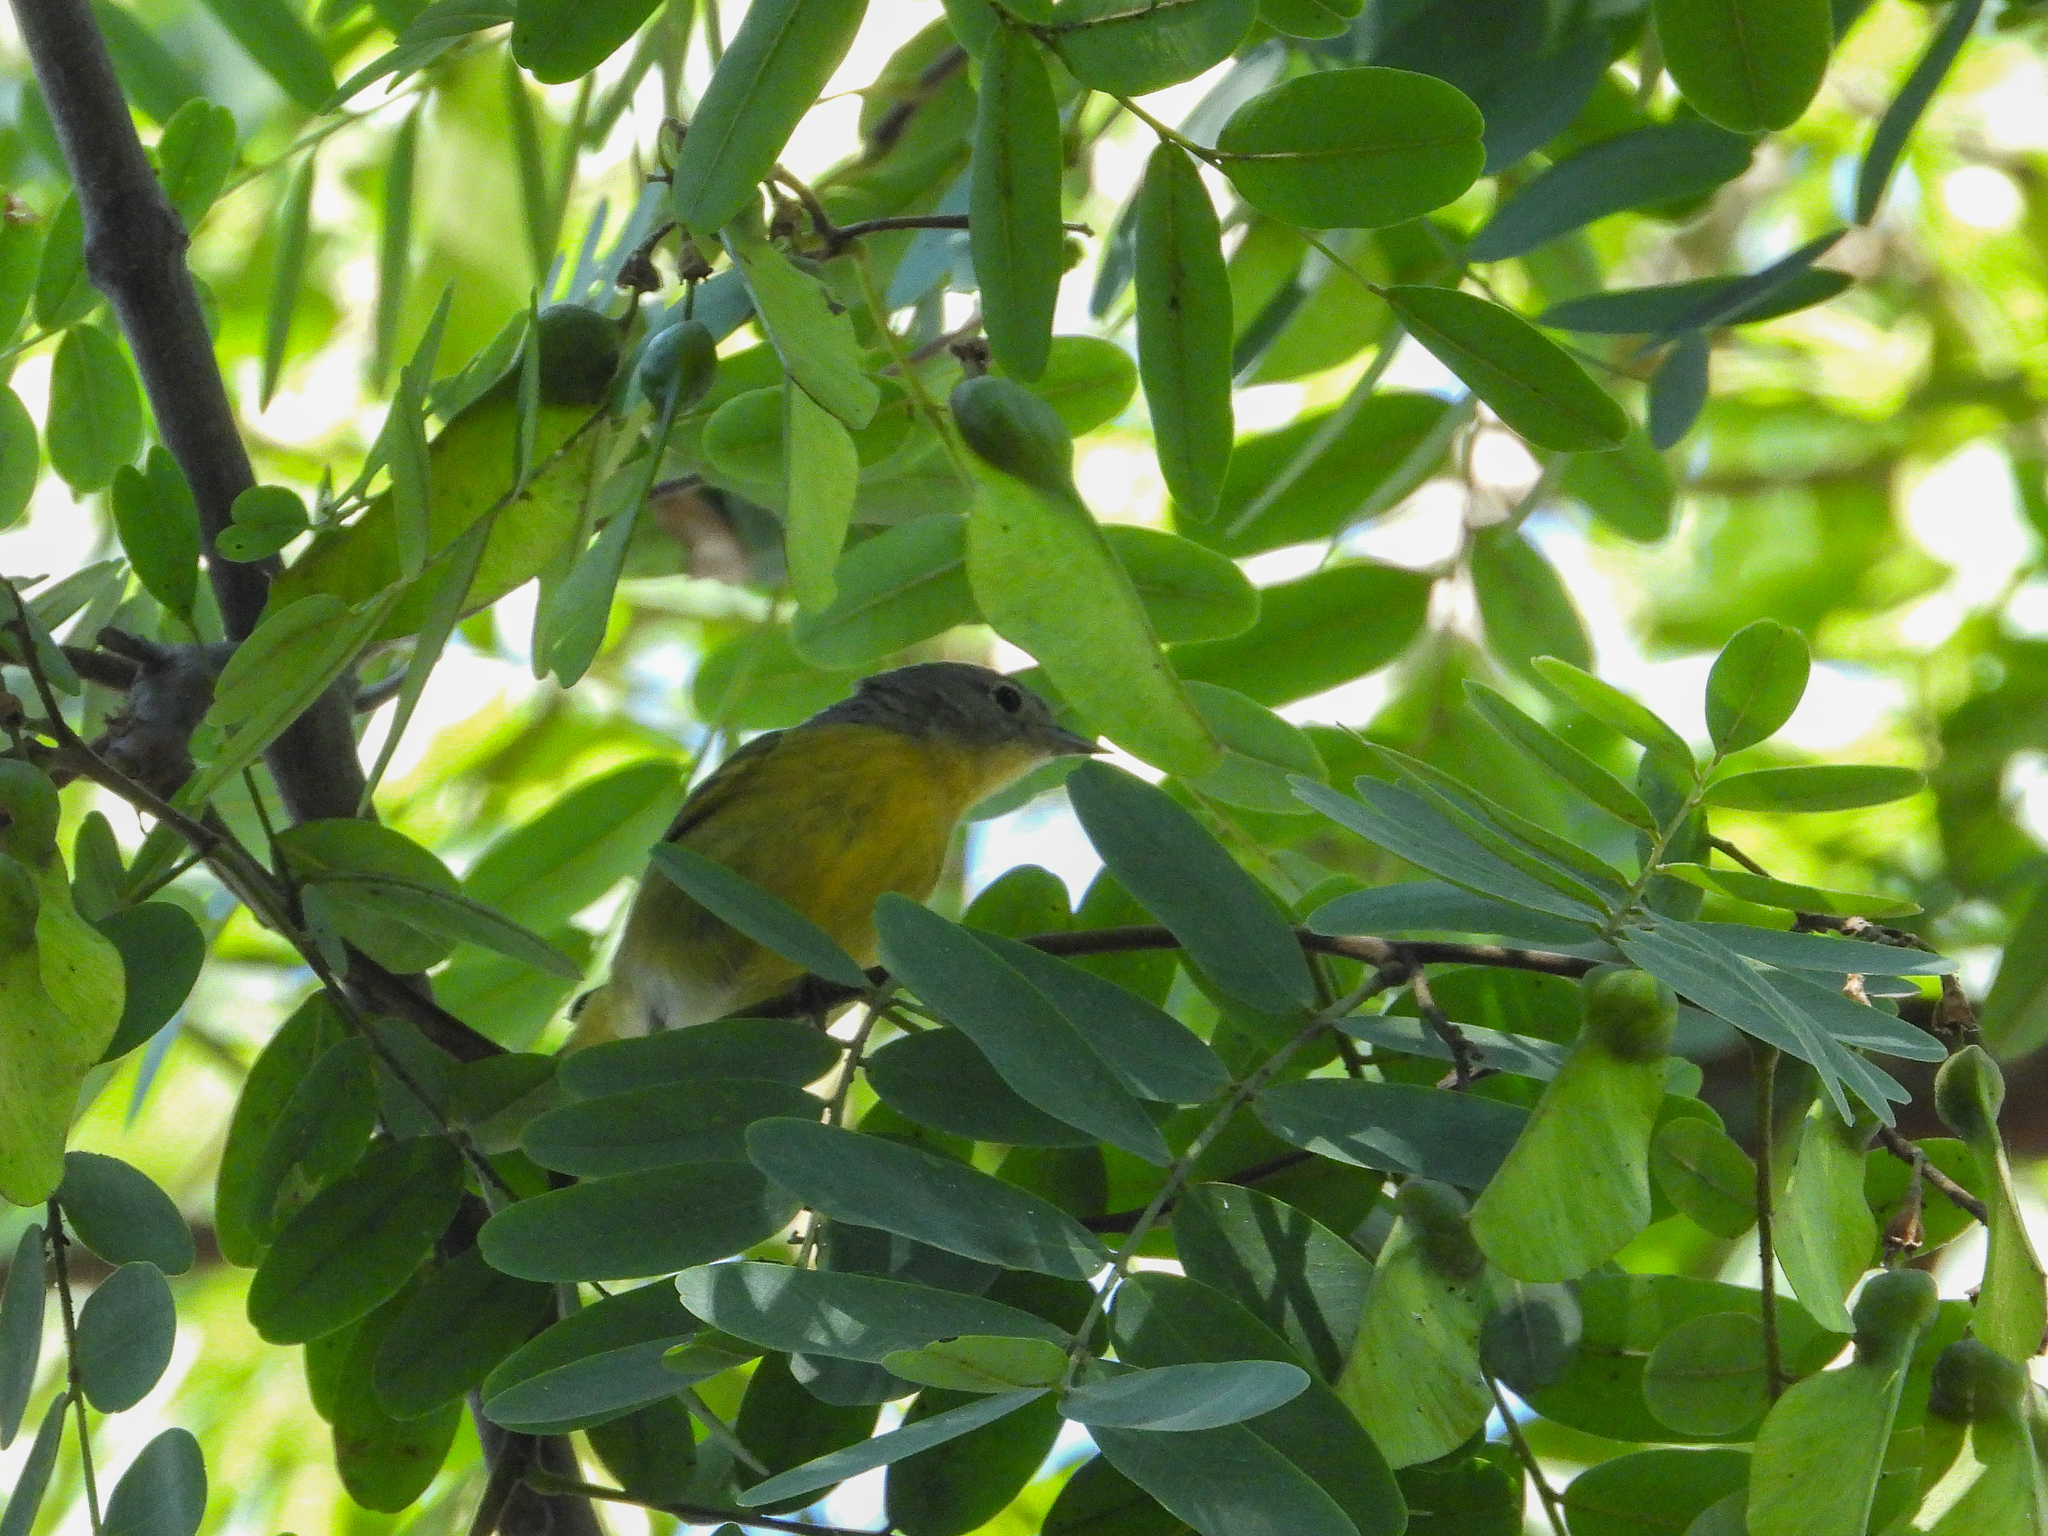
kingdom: Animalia
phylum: Chordata
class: Aves
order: Passeriformes
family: Parulidae
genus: Leiothlypis
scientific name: Leiothlypis ruficapilla
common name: Nashville warbler
